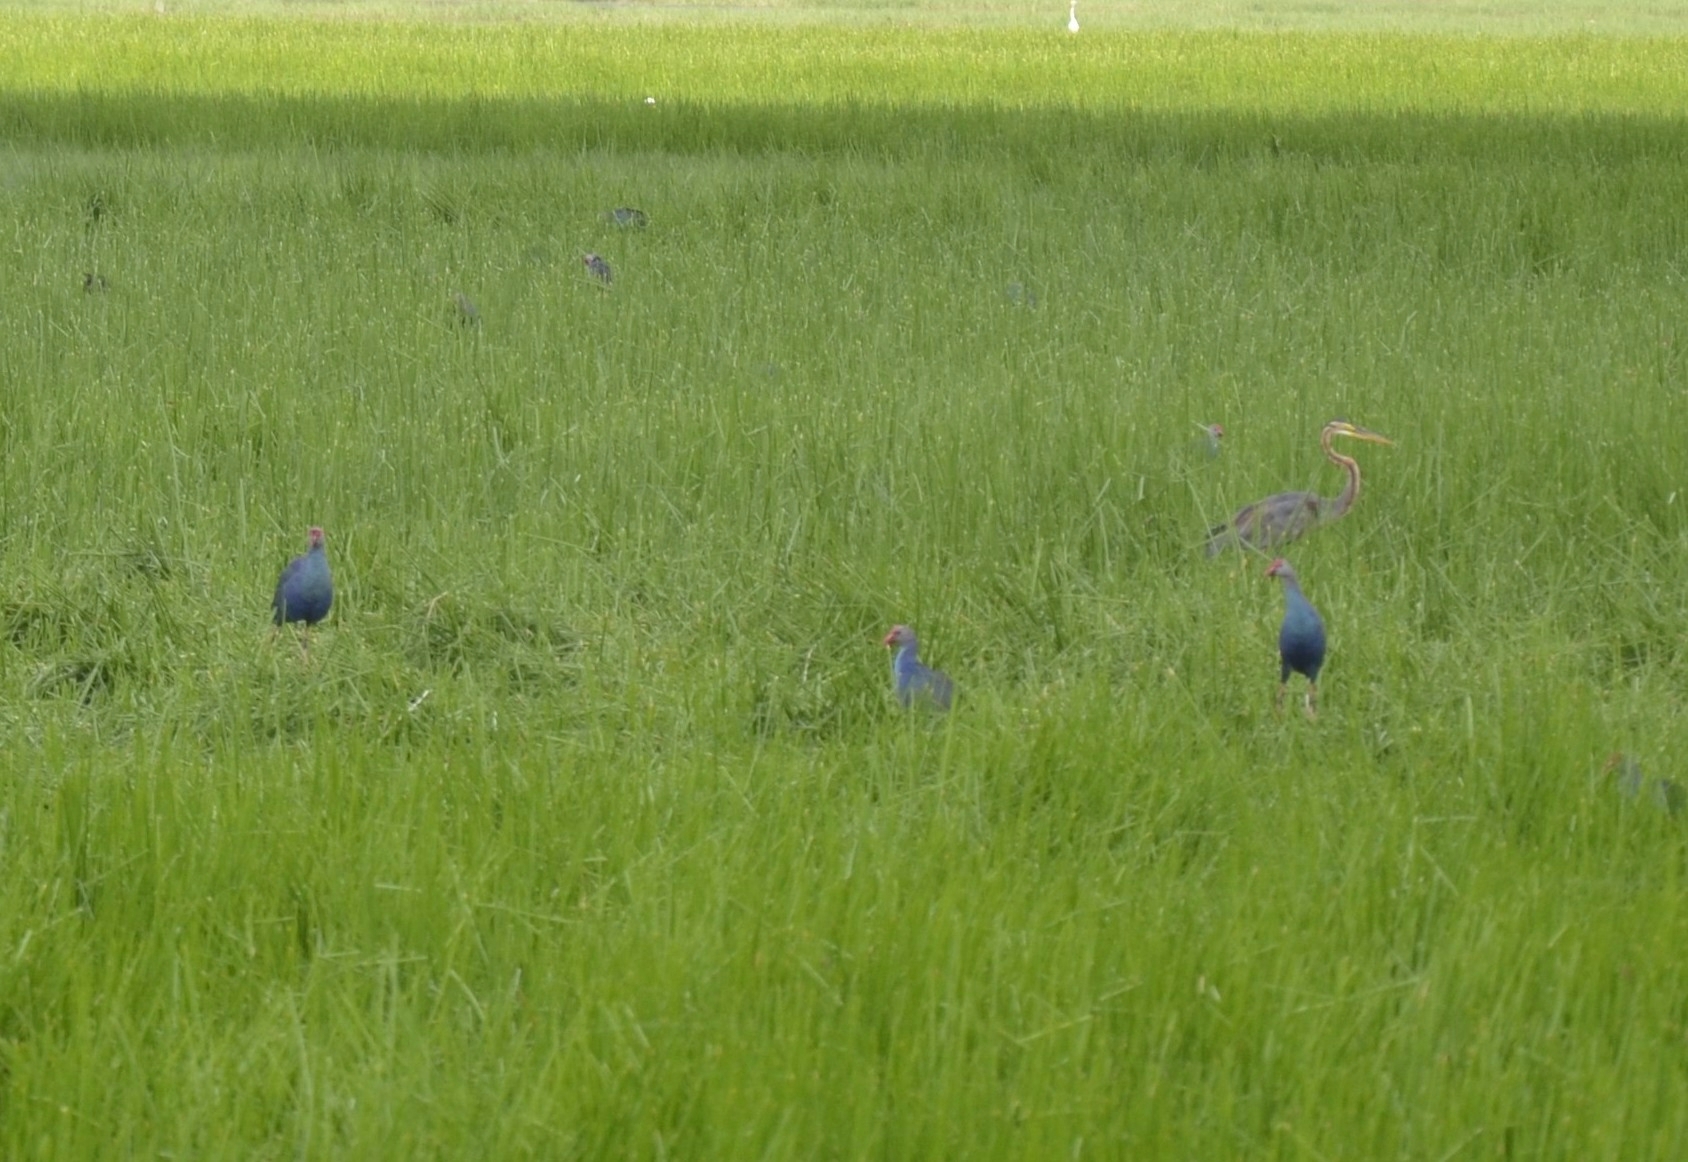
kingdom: Animalia
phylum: Chordata
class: Aves
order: Gruiformes
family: Rallidae
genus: Porphyrio
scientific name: Porphyrio porphyrio
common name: Purple swamphen
